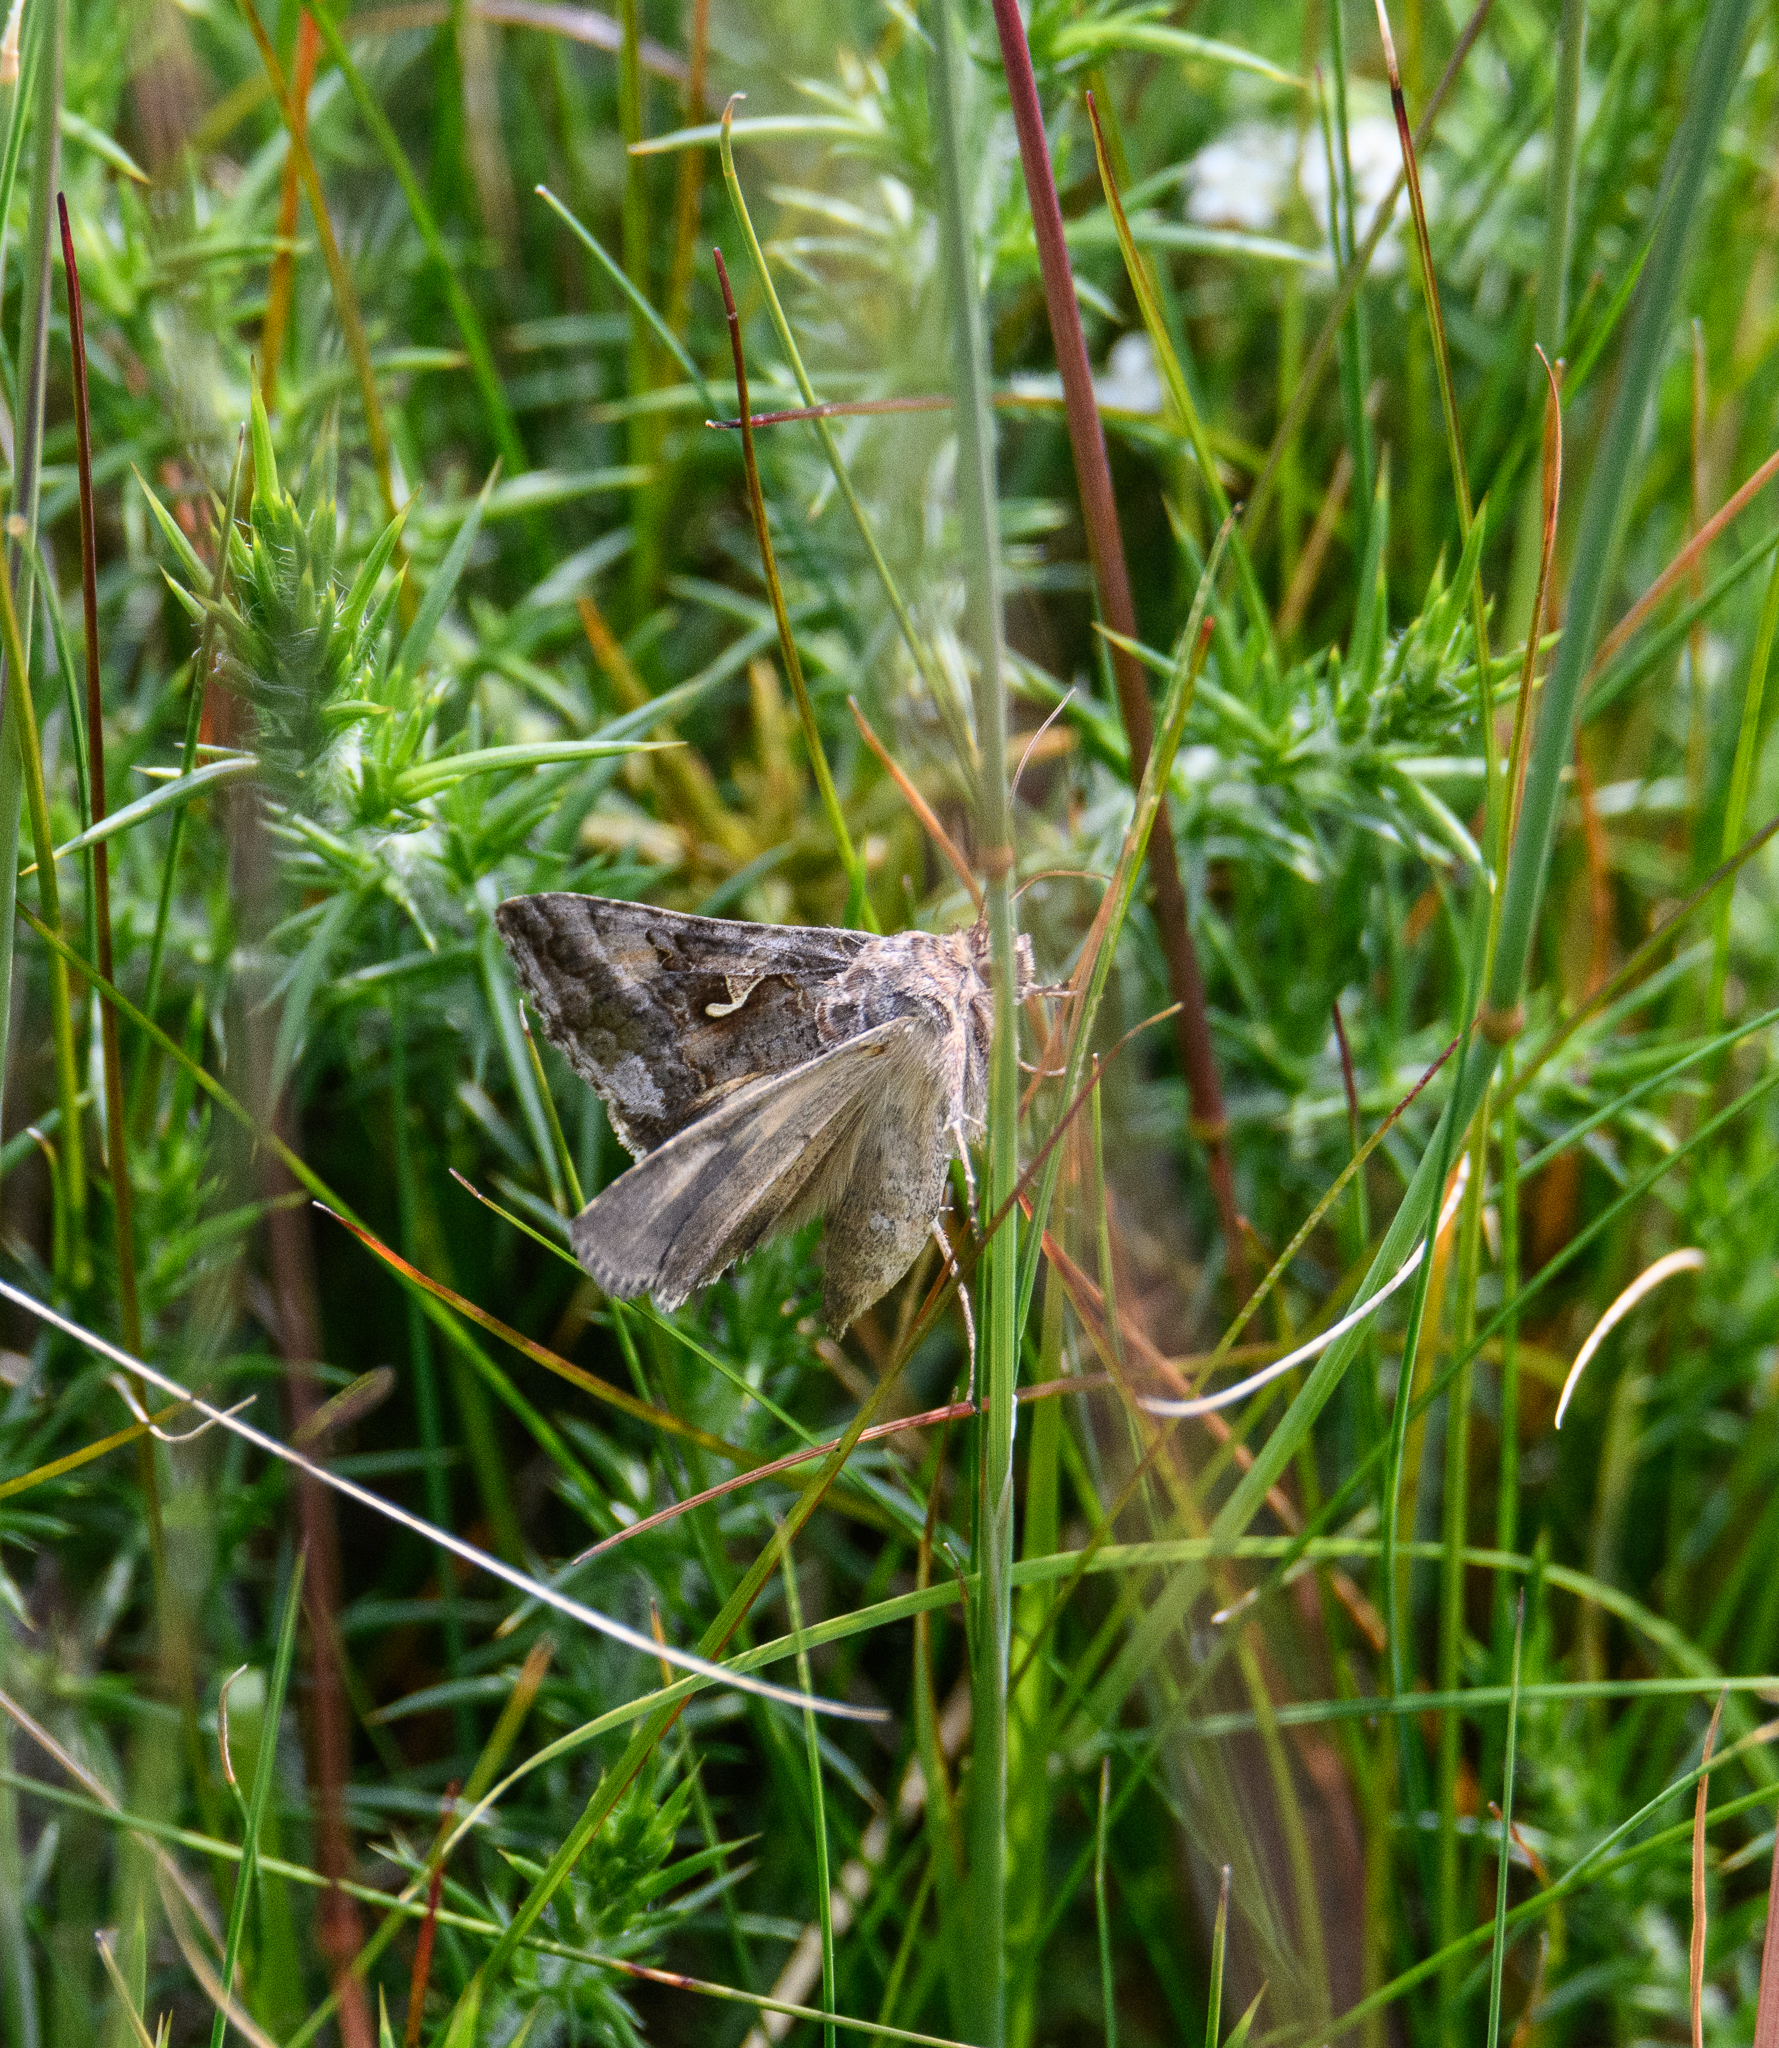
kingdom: Animalia
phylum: Arthropoda
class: Insecta
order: Lepidoptera
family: Noctuidae
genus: Autographa
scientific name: Autographa gamma
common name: Silver y
